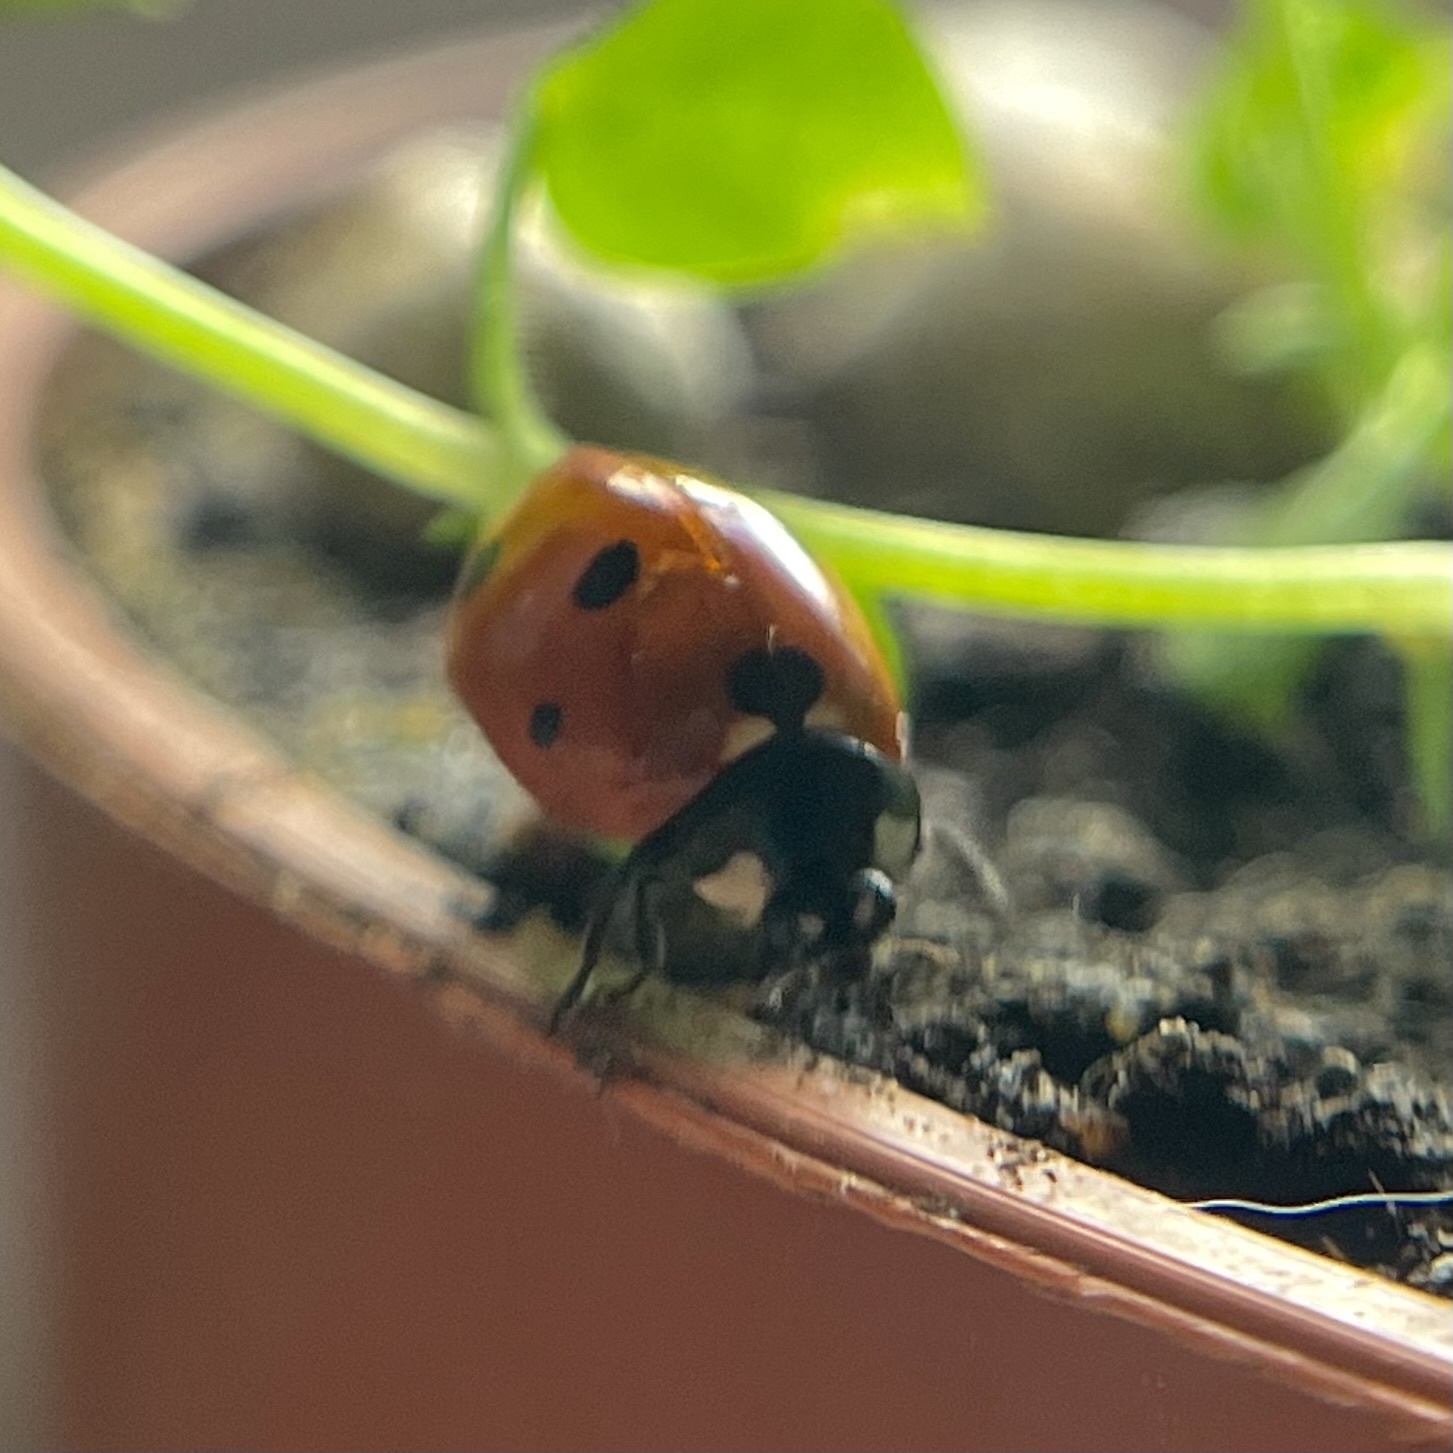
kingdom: Animalia
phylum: Arthropoda
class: Insecta
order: Coleoptera
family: Coccinellidae
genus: Coccinella
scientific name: Coccinella septempunctata
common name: Sevenspotted lady beetle
